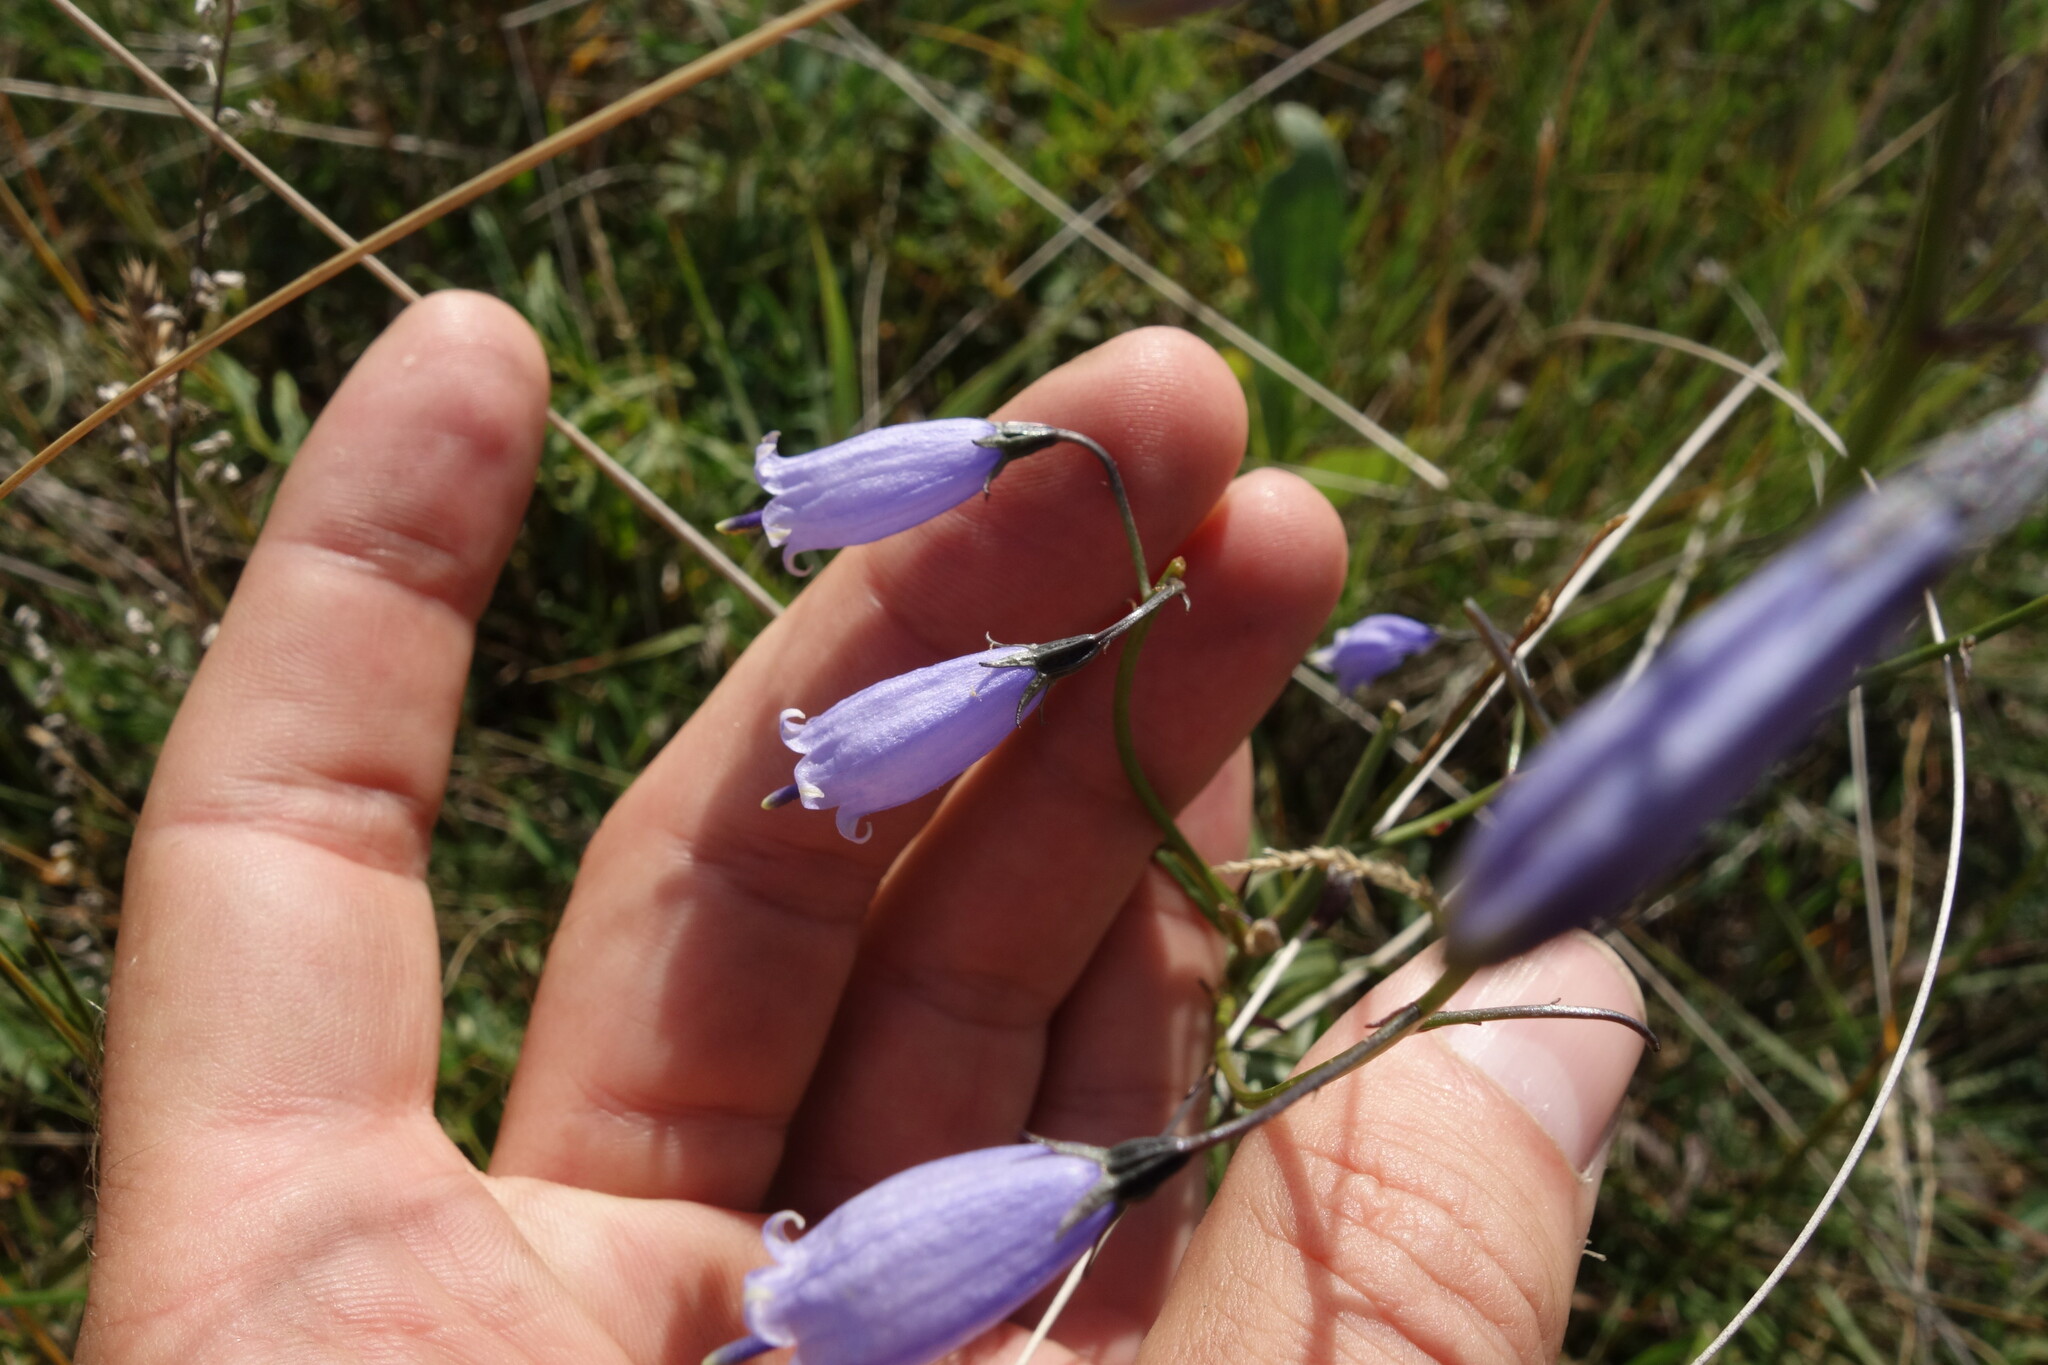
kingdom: Plantae
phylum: Tracheophyta
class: Magnoliopsida
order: Asterales
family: Campanulaceae
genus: Adenophora
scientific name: Adenophora stenanthina
